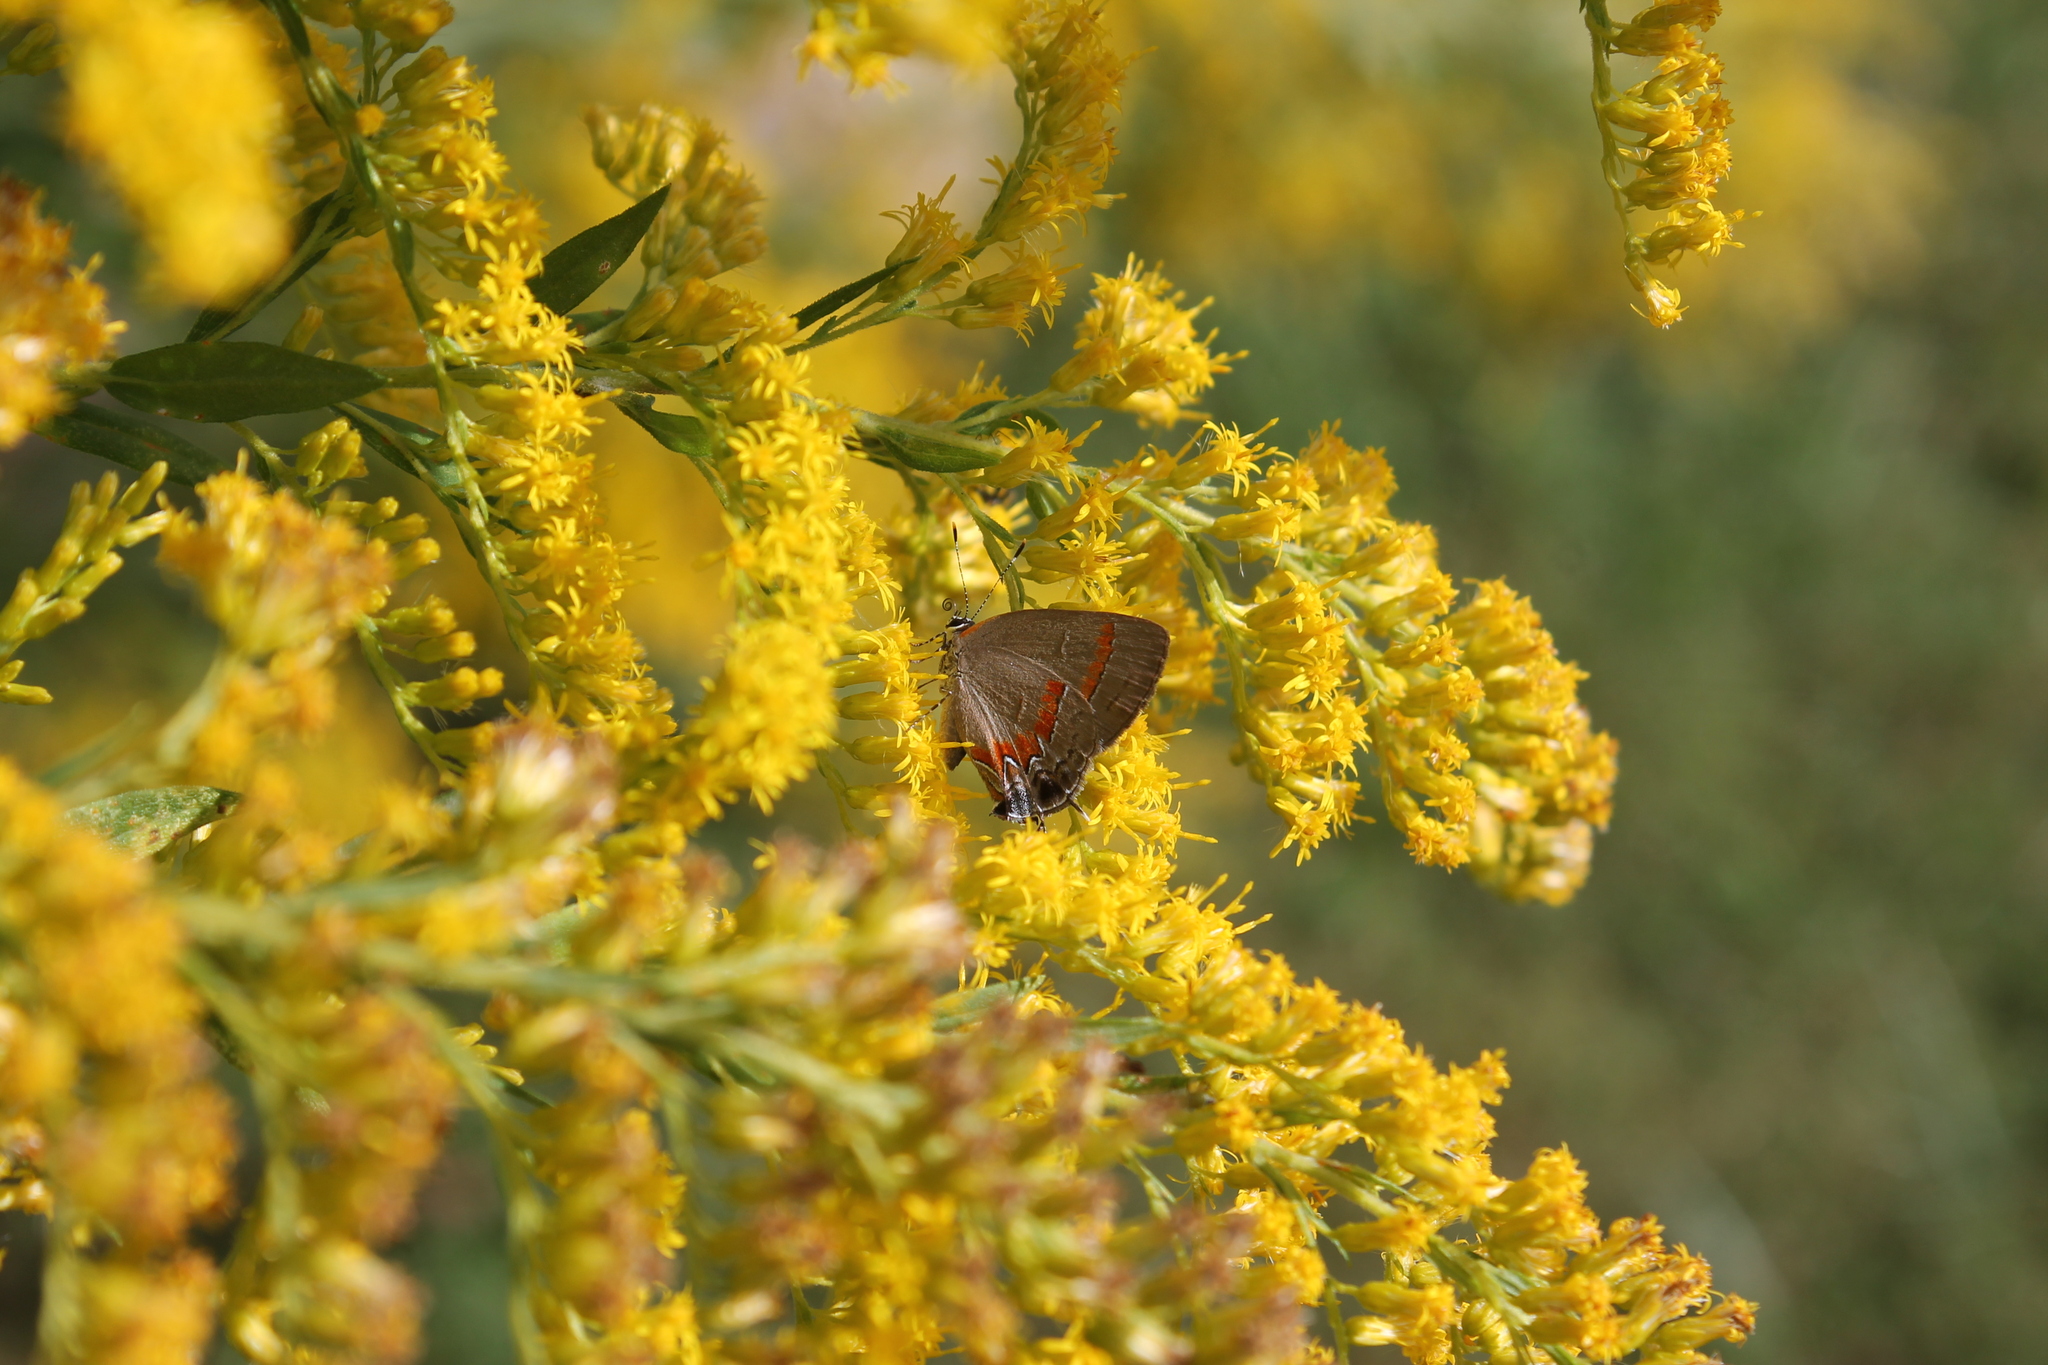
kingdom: Animalia
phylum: Arthropoda
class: Insecta
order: Lepidoptera
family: Lycaenidae
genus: Calycopis
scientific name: Calycopis cecrops
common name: Red-banded hairstreak
